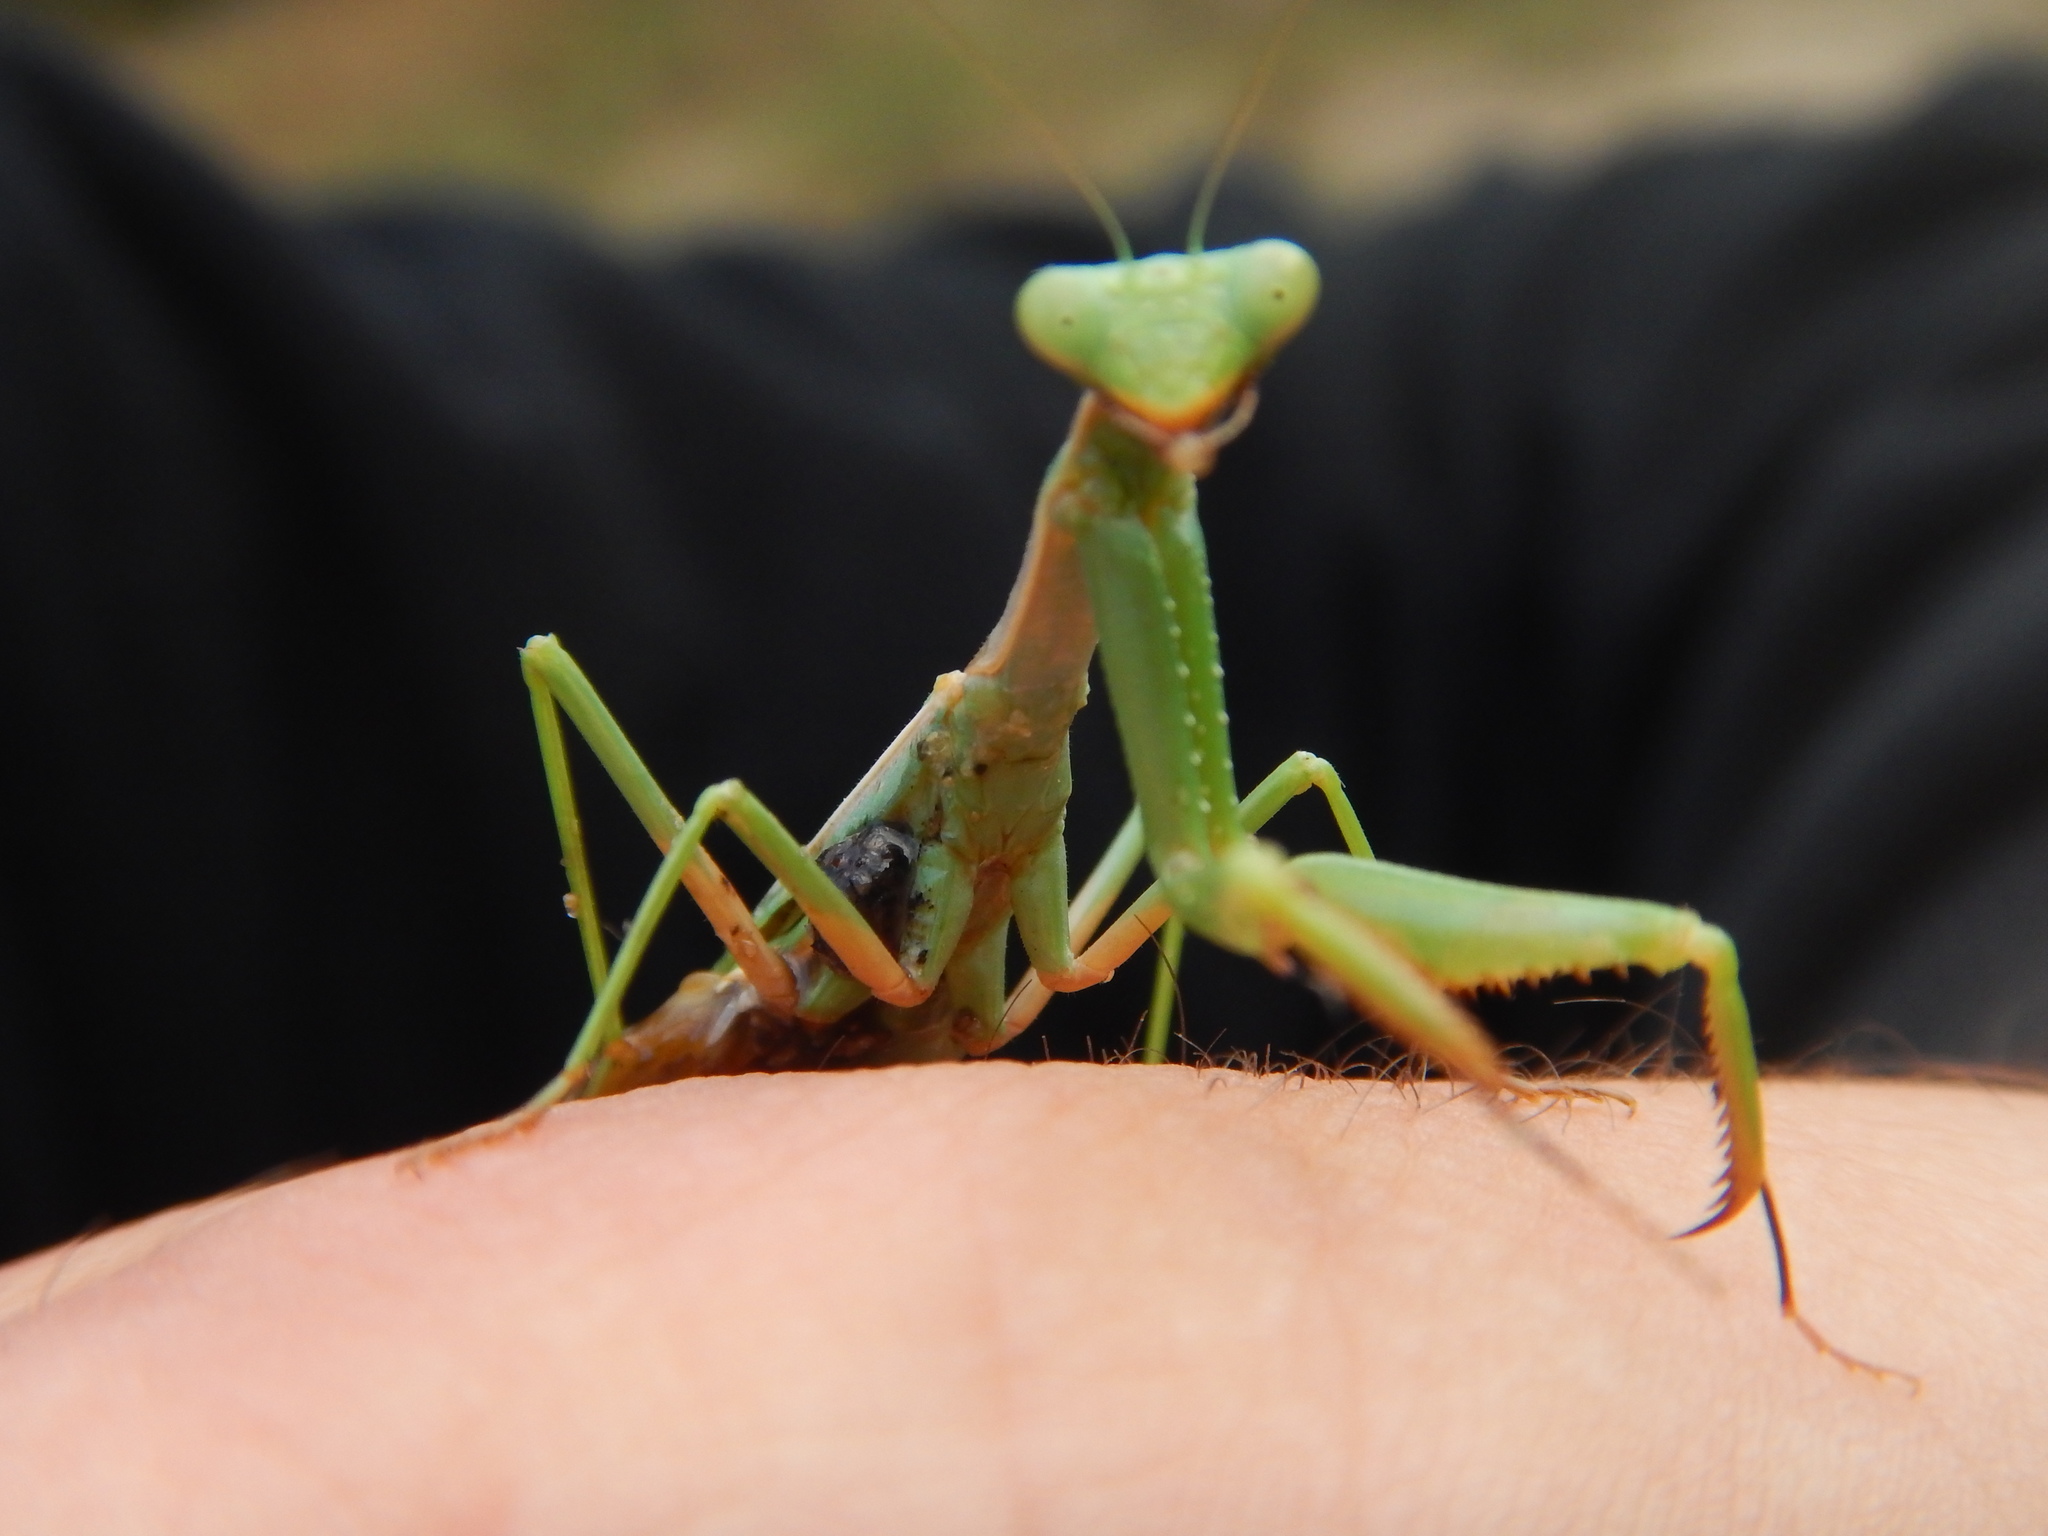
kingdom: Animalia
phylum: Arthropoda
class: Insecta
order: Mantodea
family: Eremiaphilidae
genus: Iris
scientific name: Iris oratoria
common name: Mediterranean mantis
